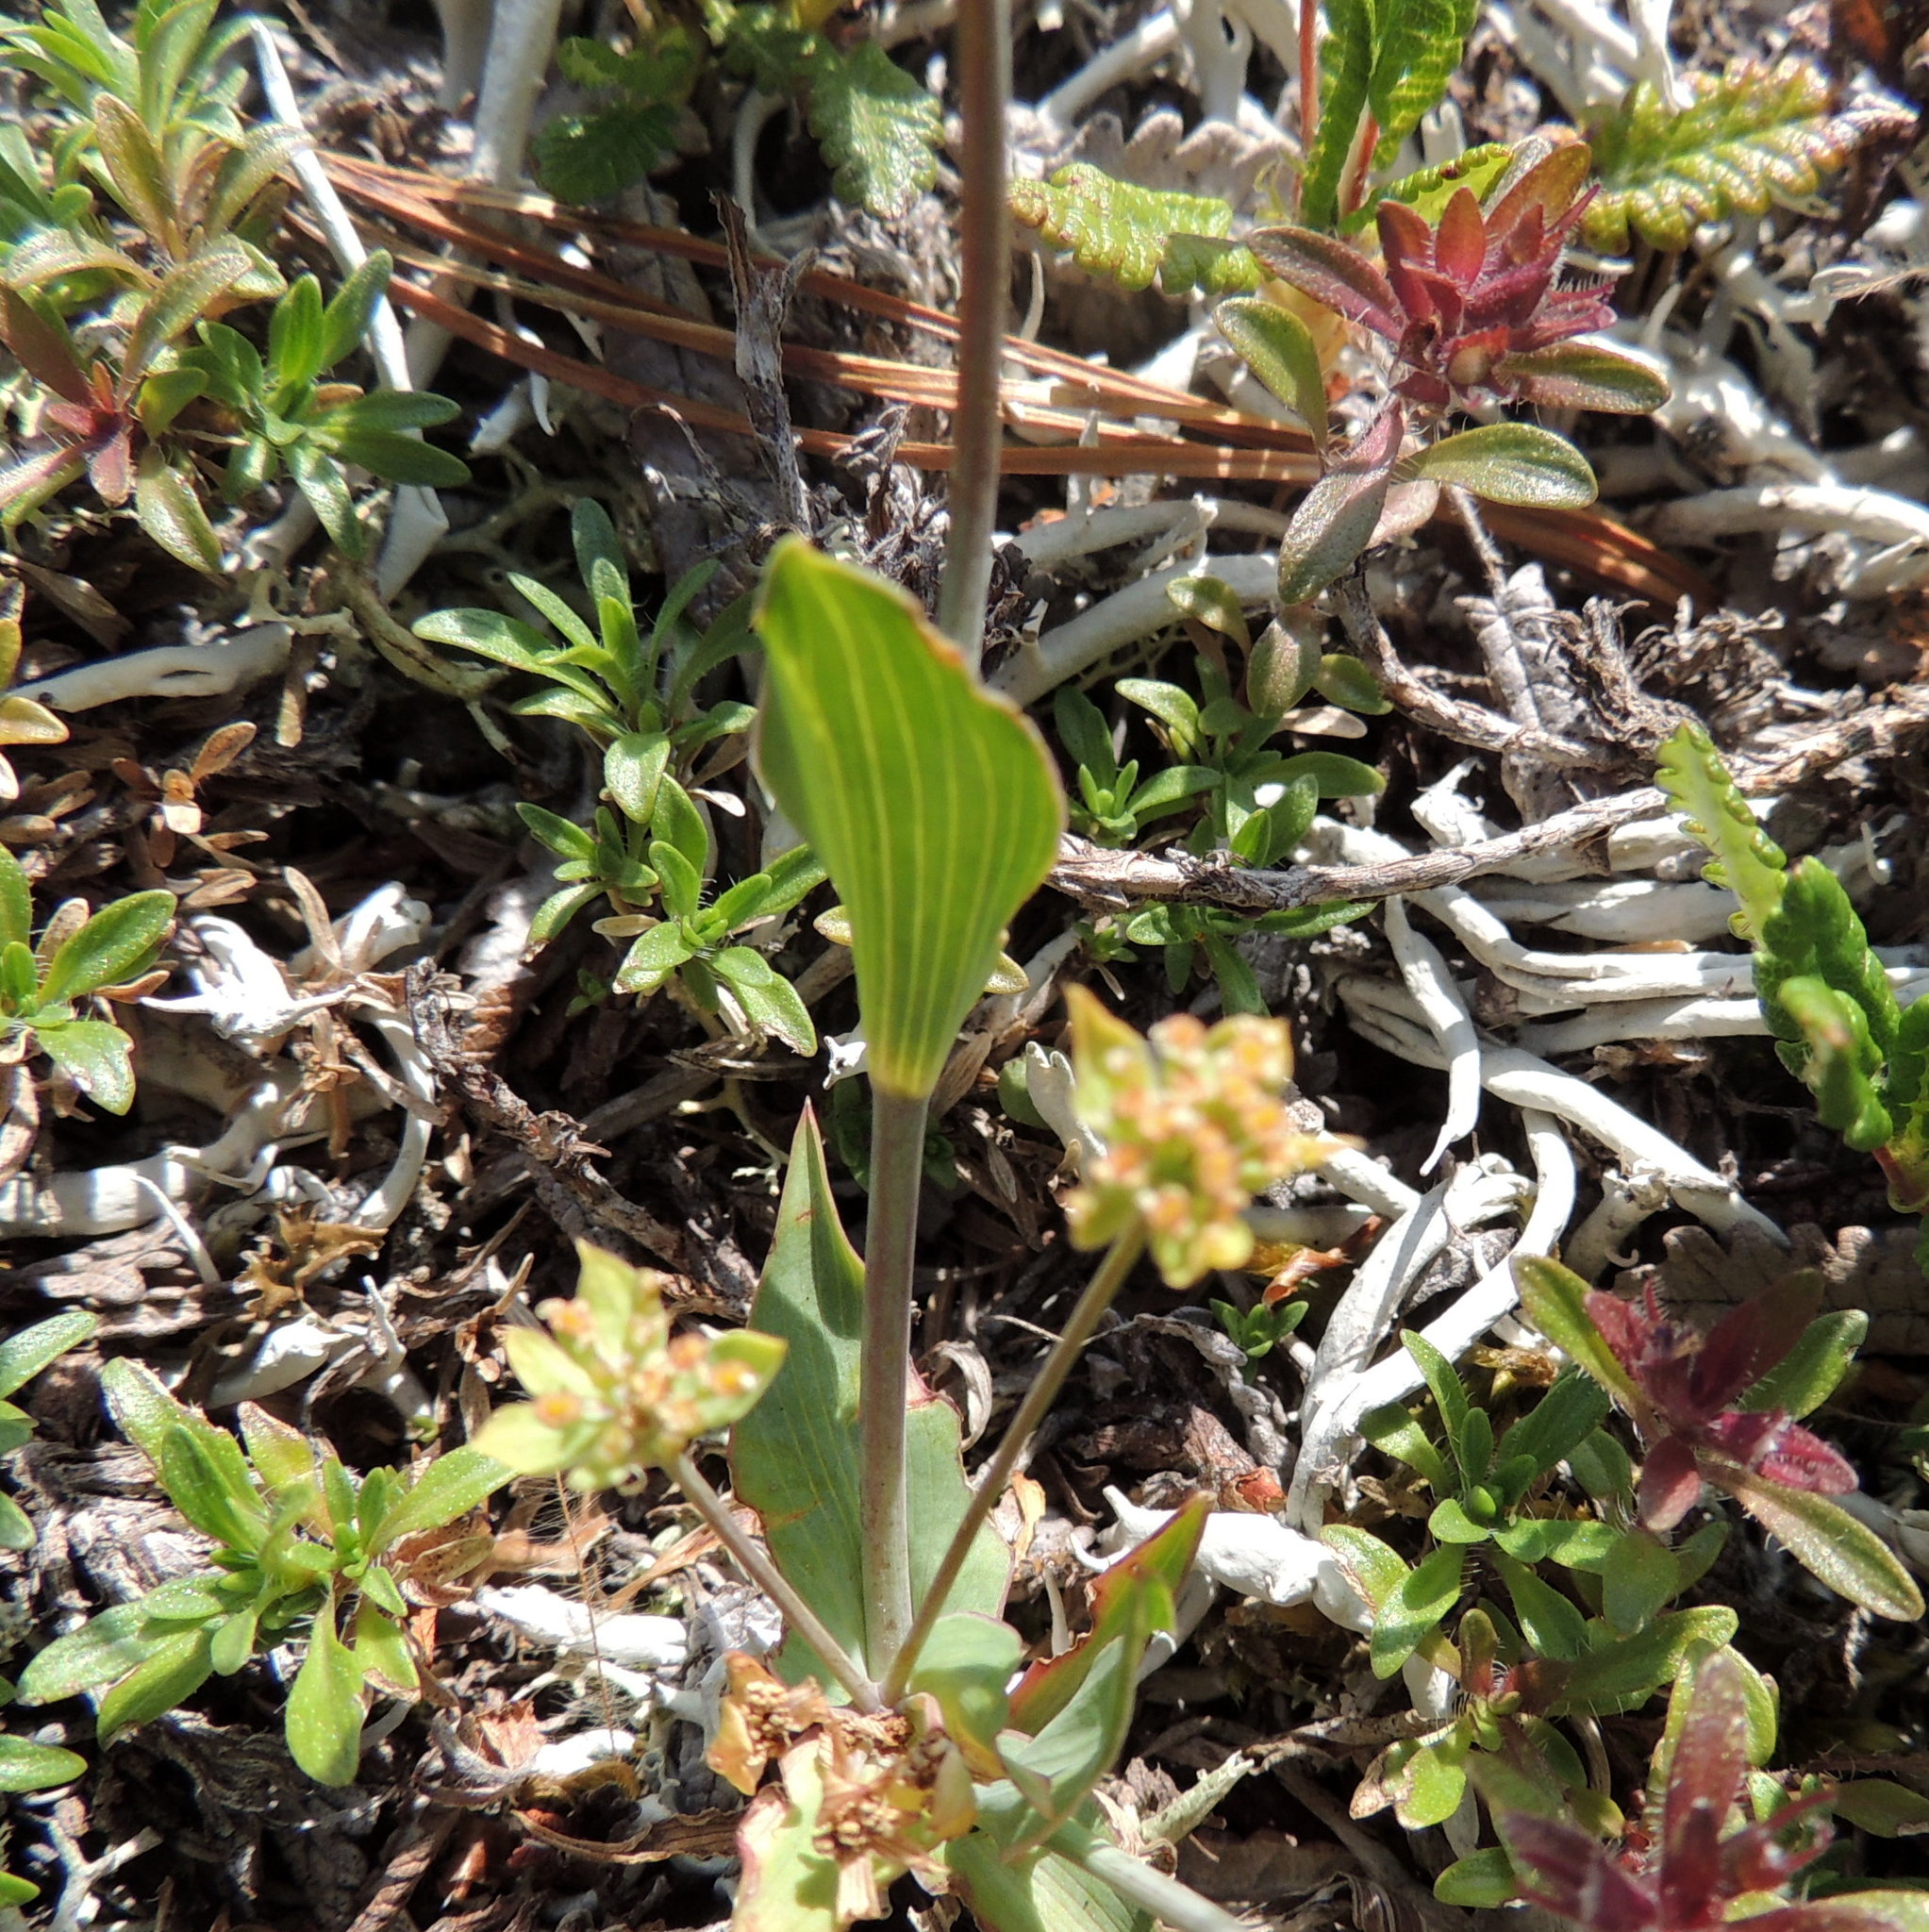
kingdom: Plantae
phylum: Tracheophyta
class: Magnoliopsida
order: Apiales
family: Apiaceae
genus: Bupleurum
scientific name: Bupleurum multinerve
